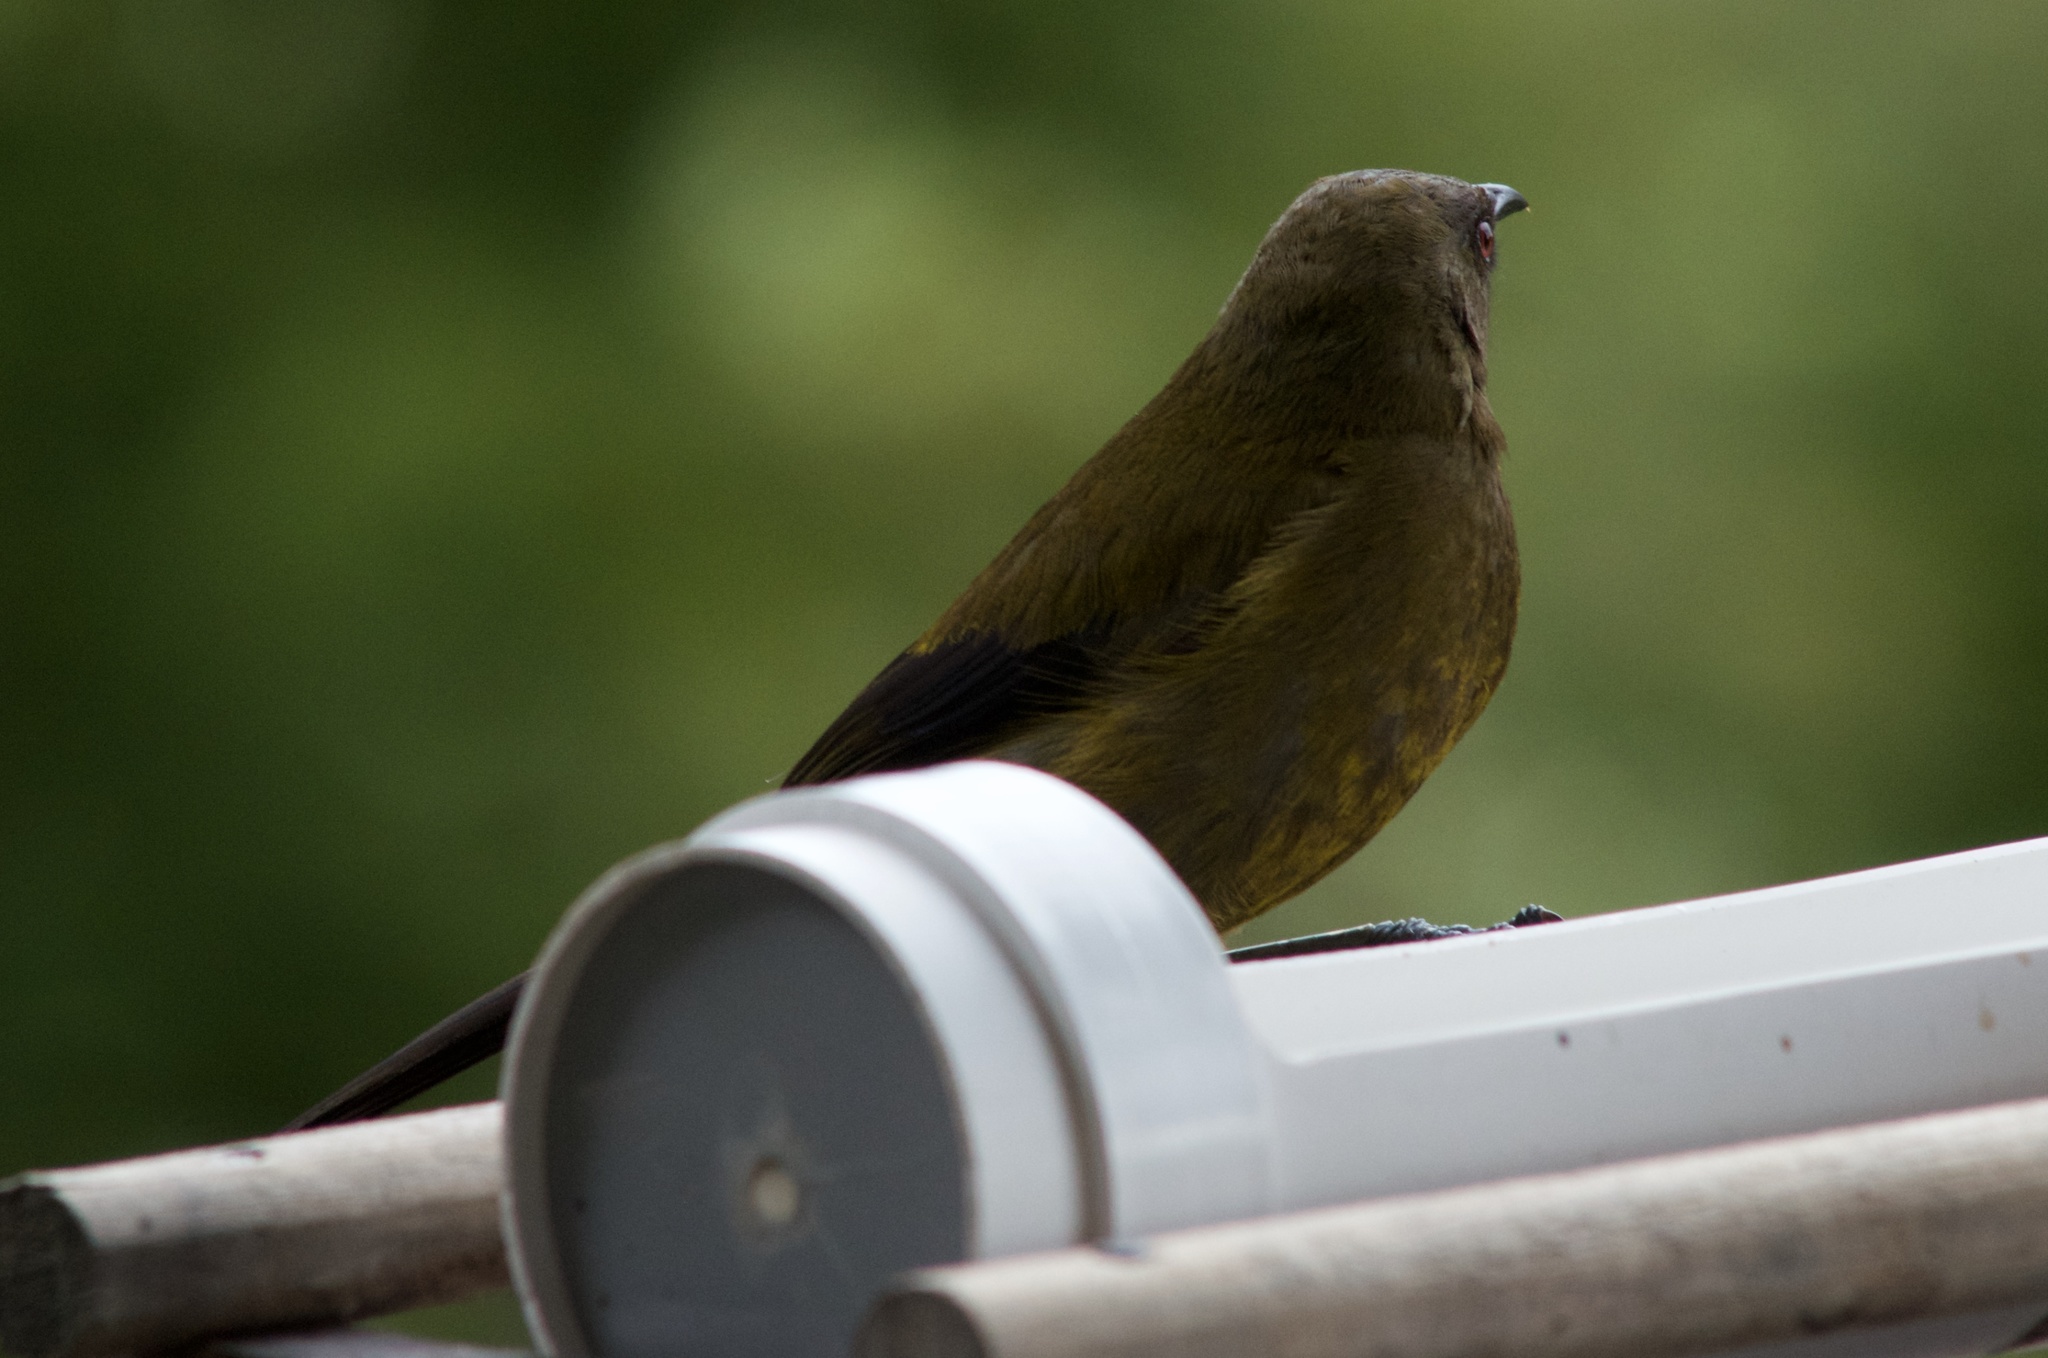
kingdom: Animalia
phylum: Chordata
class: Aves
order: Passeriformes
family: Meliphagidae
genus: Anthornis
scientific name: Anthornis melanura
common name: New zealand bellbird
